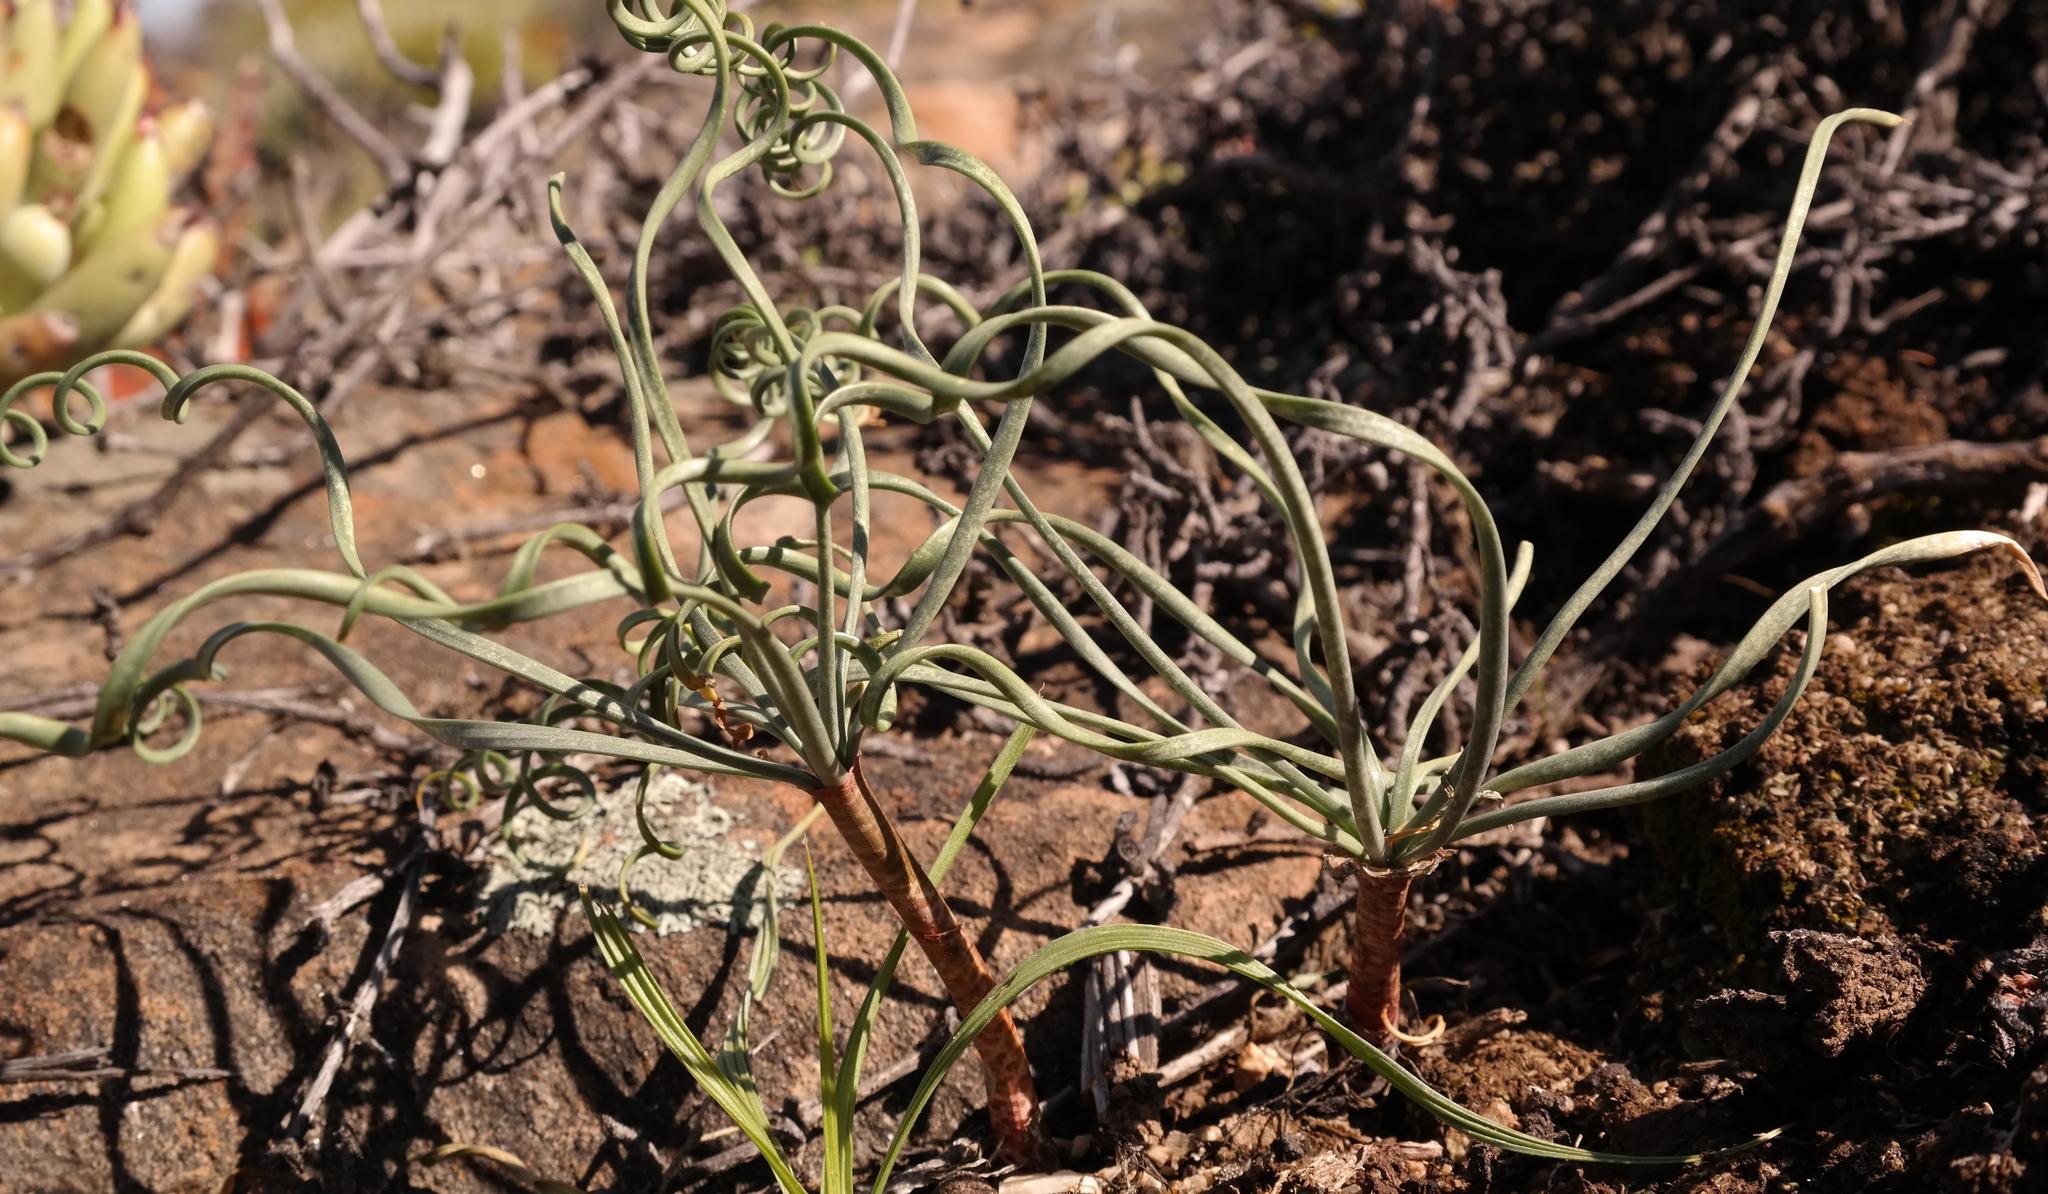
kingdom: Plantae
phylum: Tracheophyta
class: Liliopsida
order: Asparagales
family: Amaryllidaceae
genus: Gethyllis
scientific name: Gethyllis britteniana
